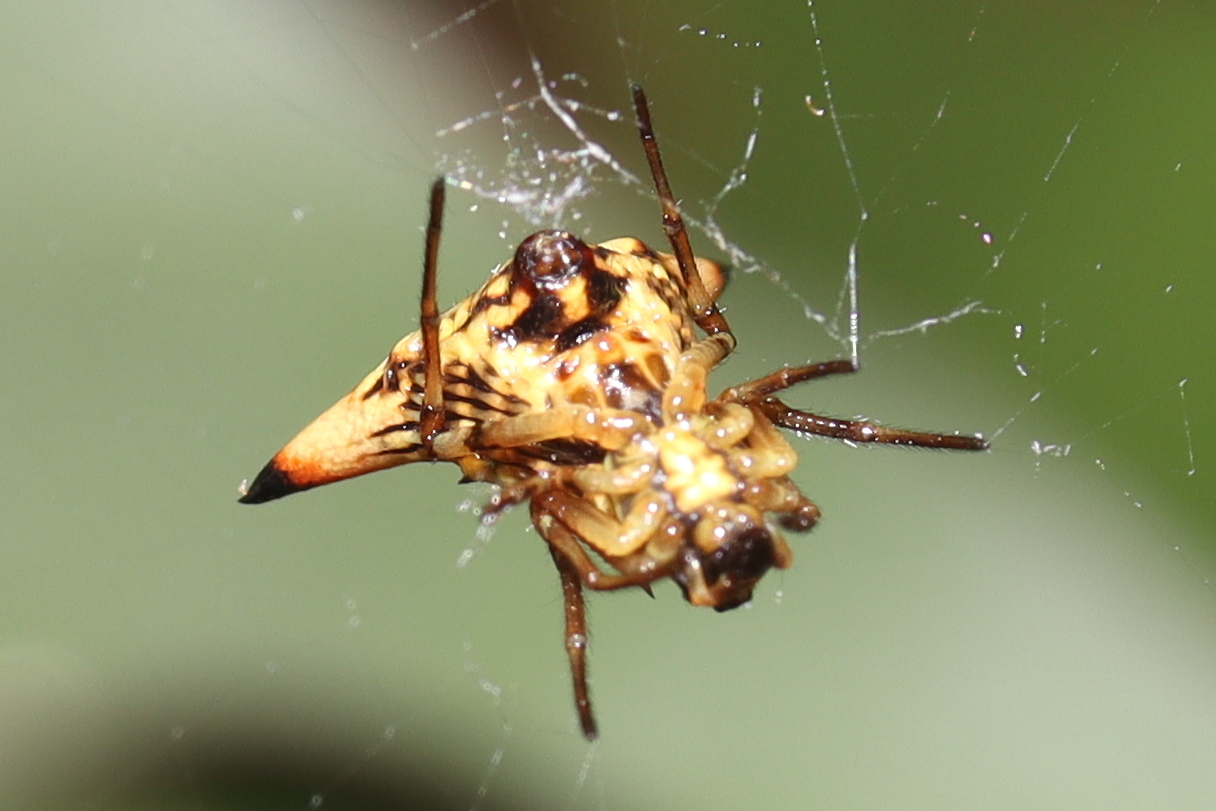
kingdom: Animalia
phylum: Arthropoda
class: Arachnida
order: Araneae
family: Araneidae
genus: Micrathena
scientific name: Micrathena annulata
